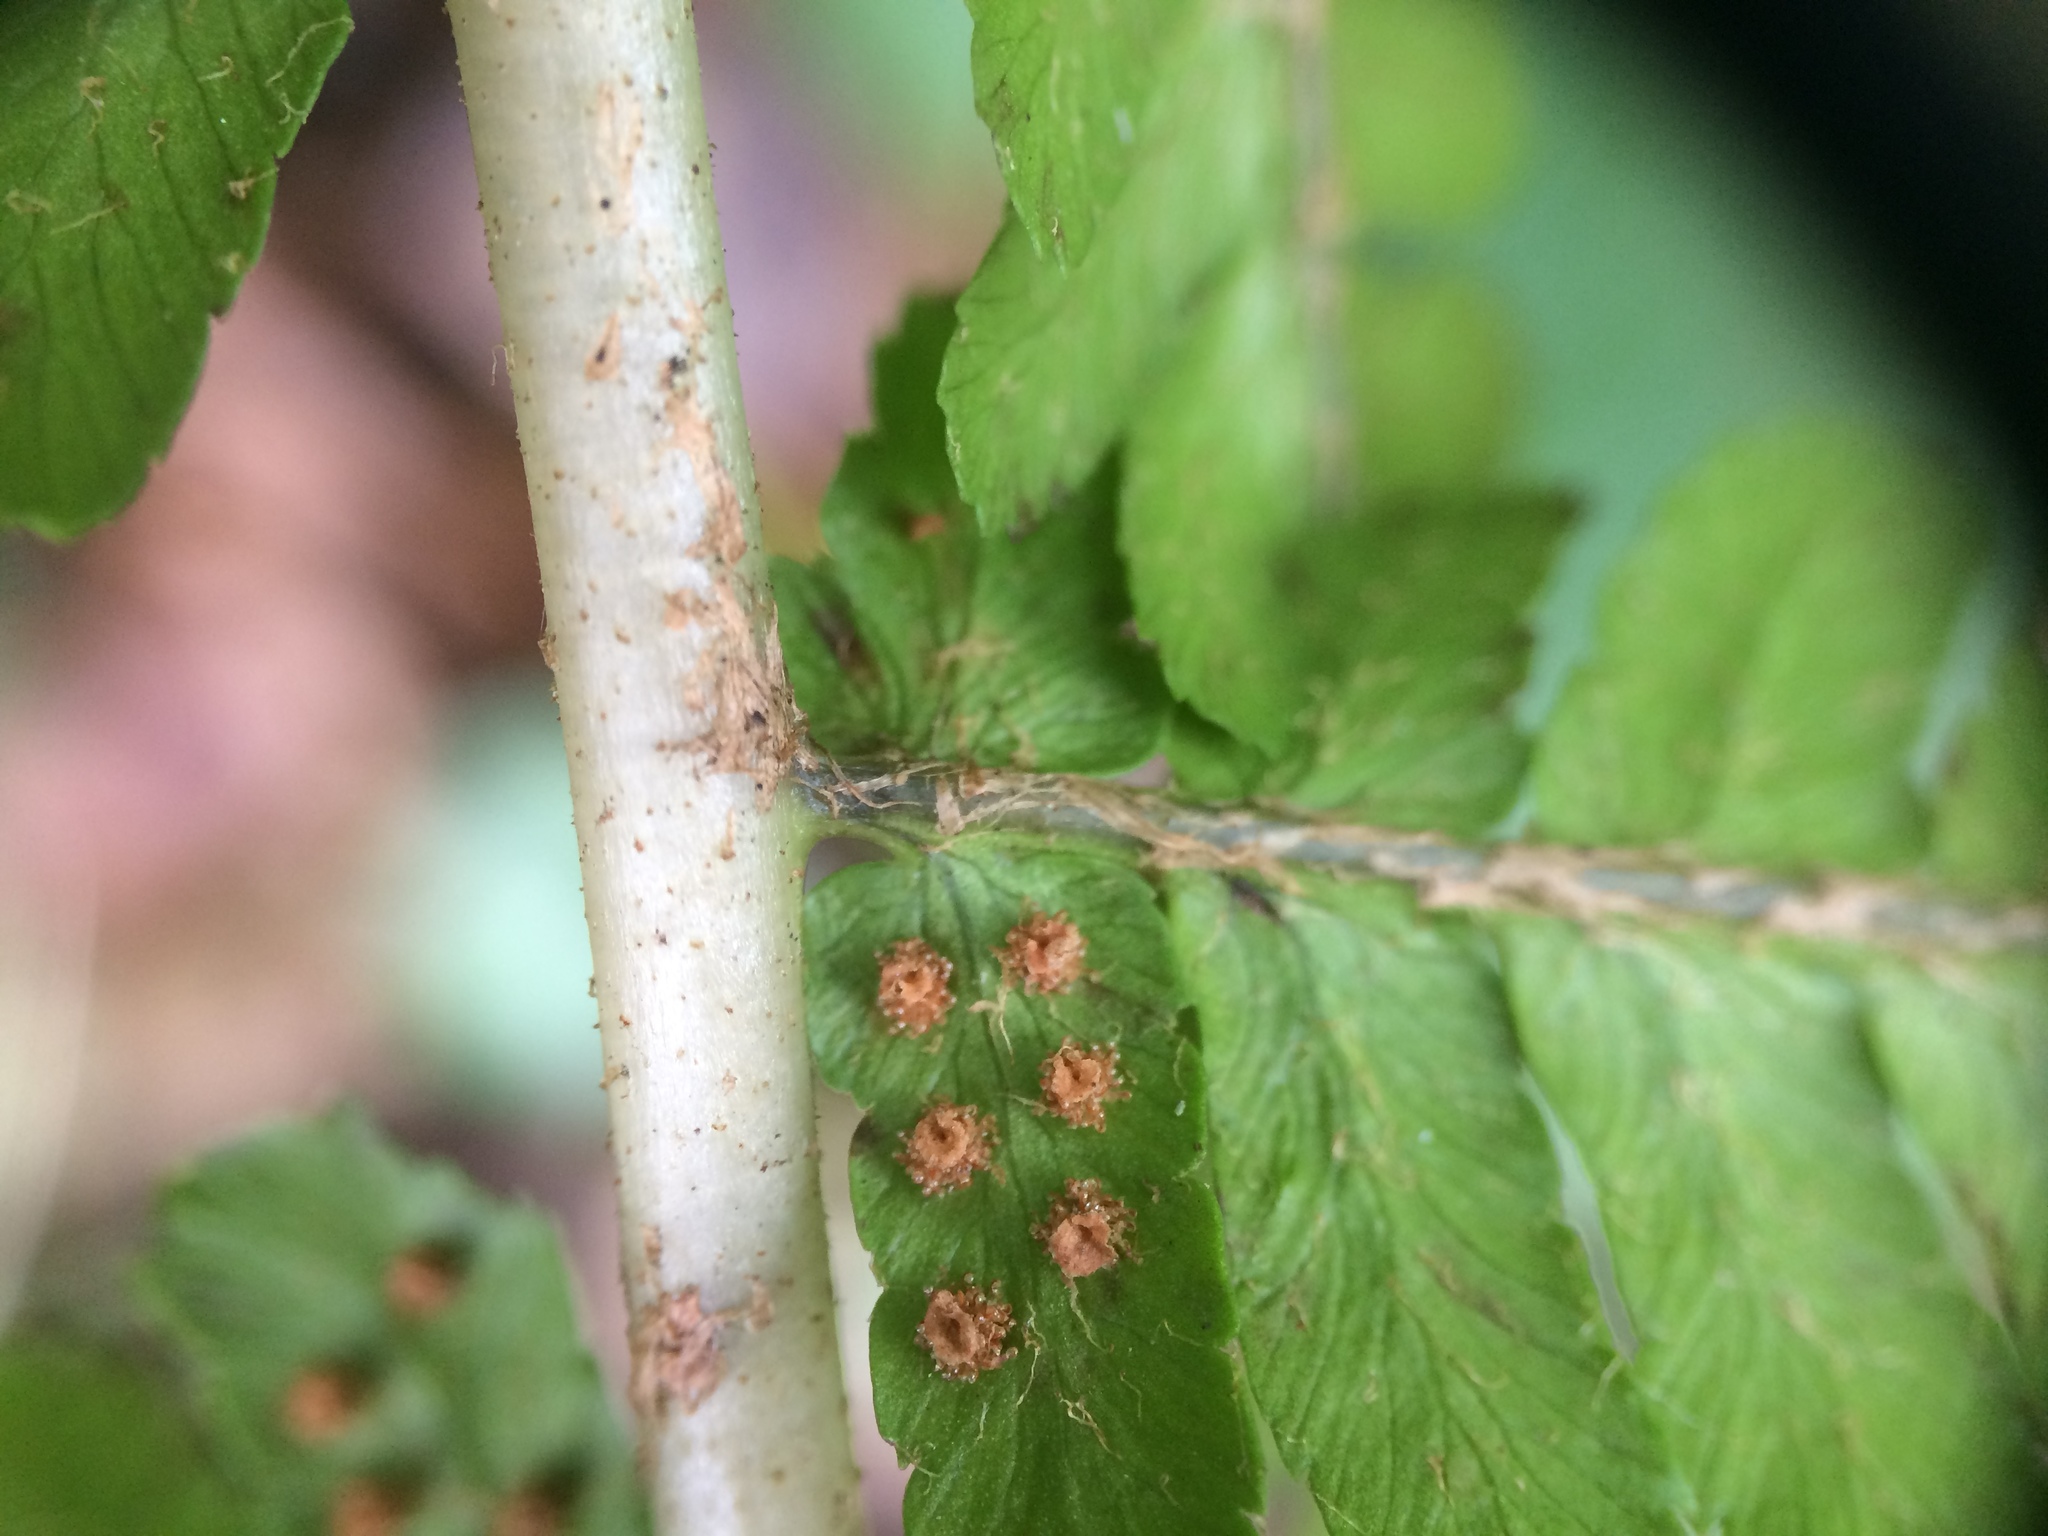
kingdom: Plantae
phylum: Tracheophyta
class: Polypodiopsida
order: Polypodiales
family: Dryopteridaceae
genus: Dryopteris
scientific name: Dryopteris filix-mas
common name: Male fern
